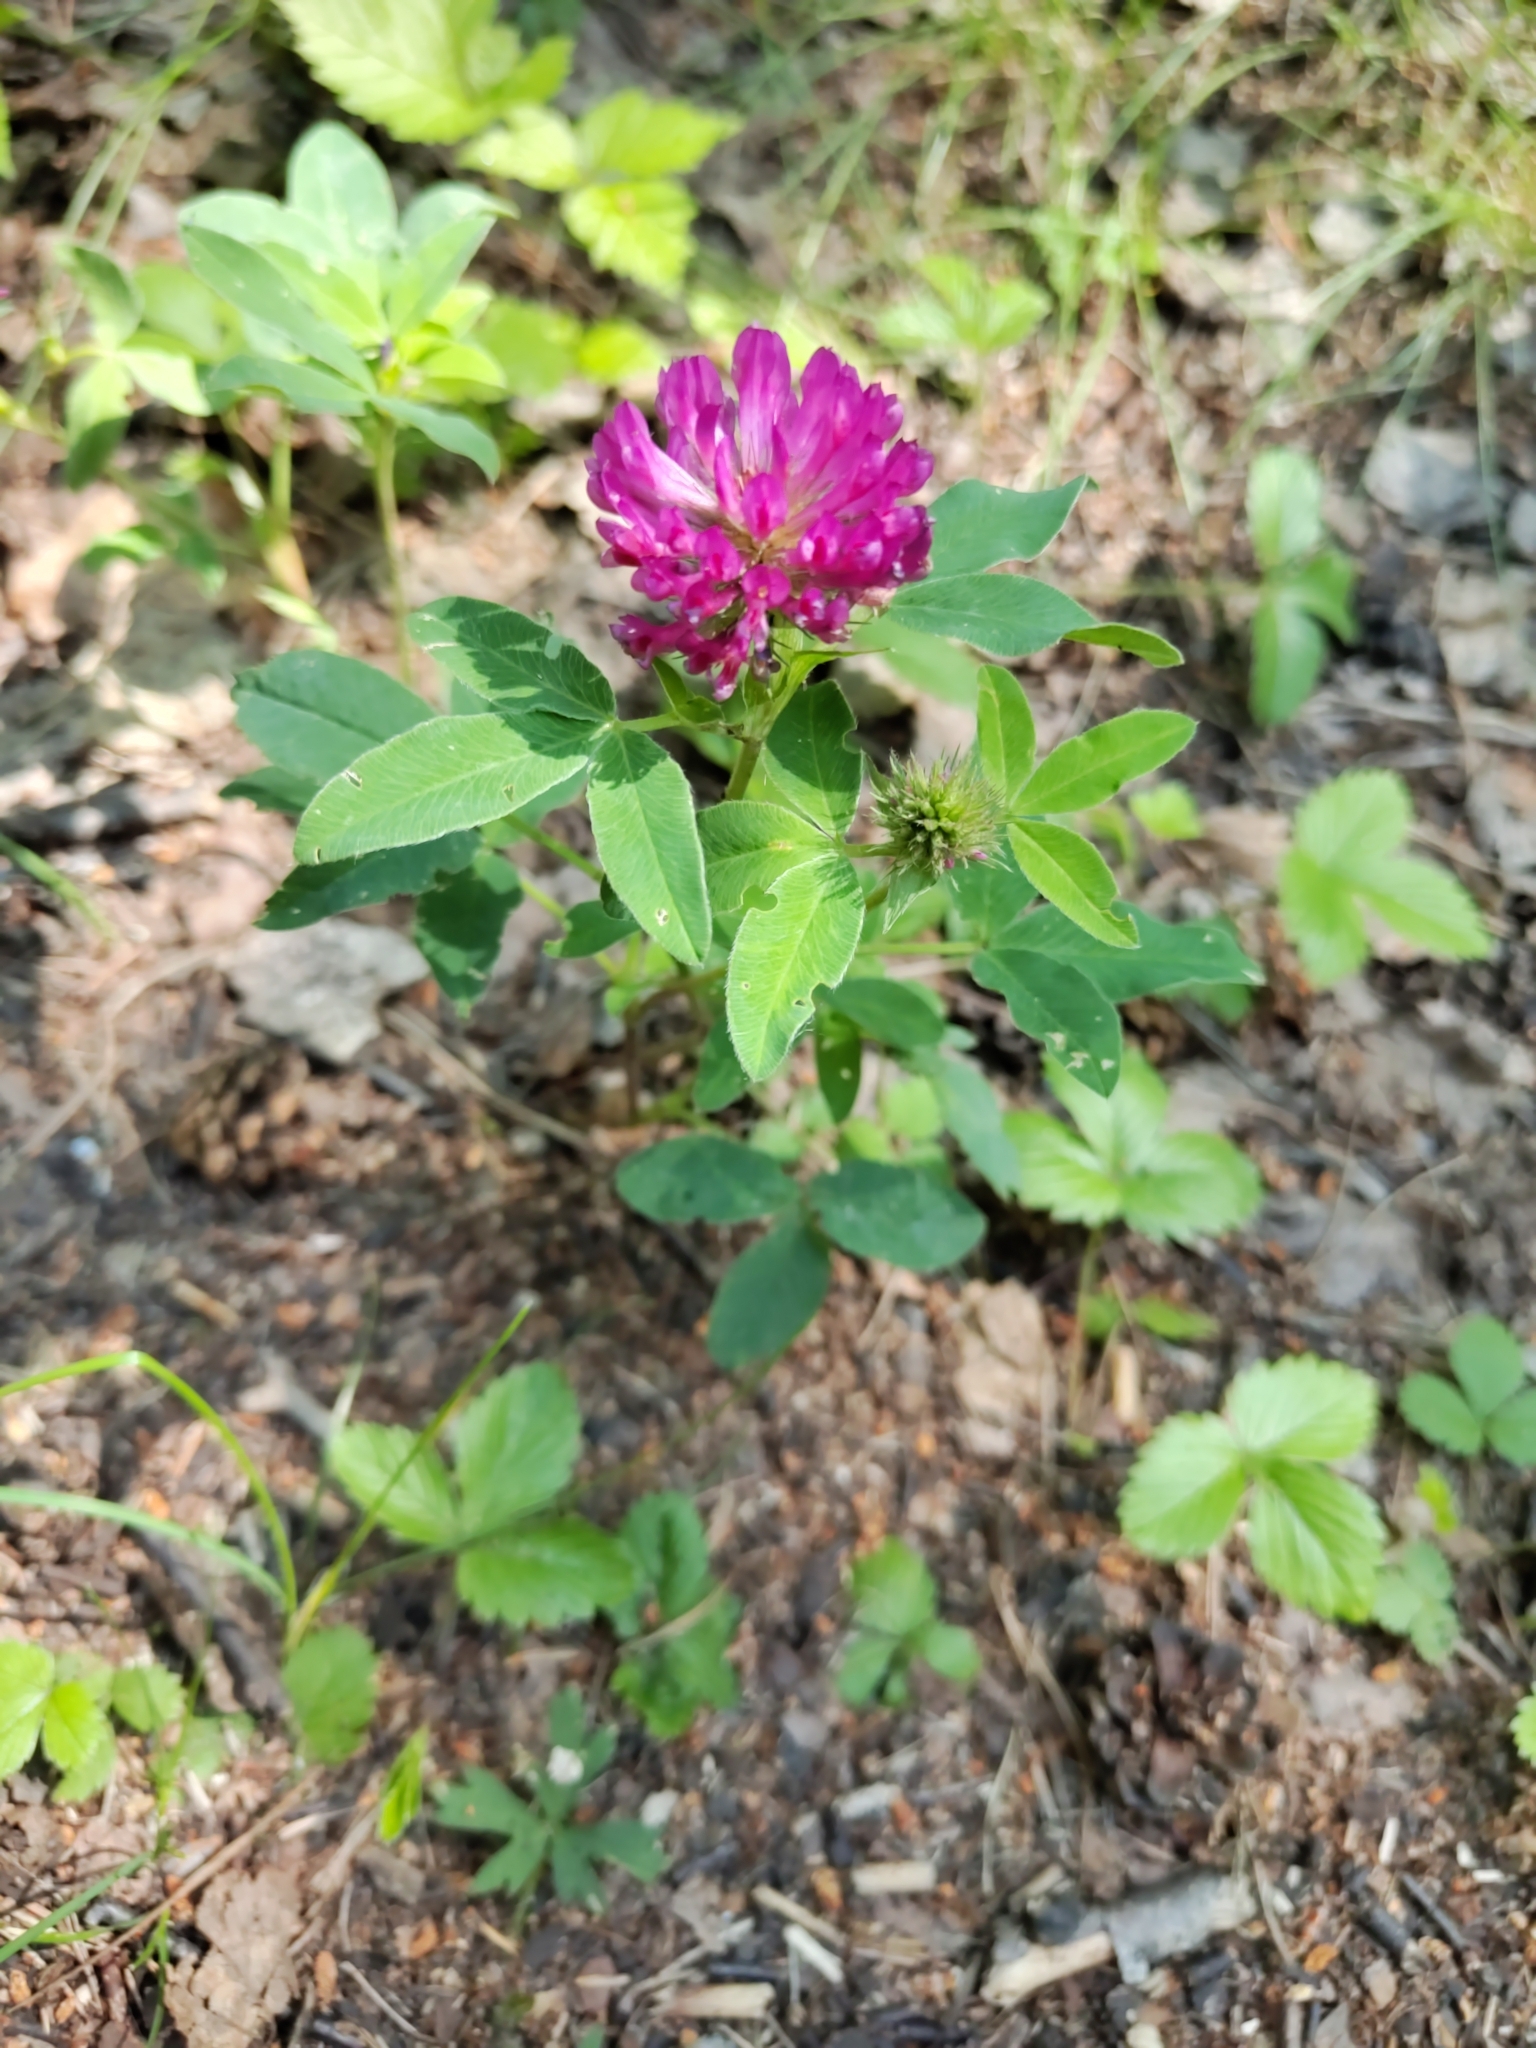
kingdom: Plantae
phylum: Tracheophyta
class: Magnoliopsida
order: Fabales
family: Fabaceae
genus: Trifolium
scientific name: Trifolium medium
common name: Zigzag clover
